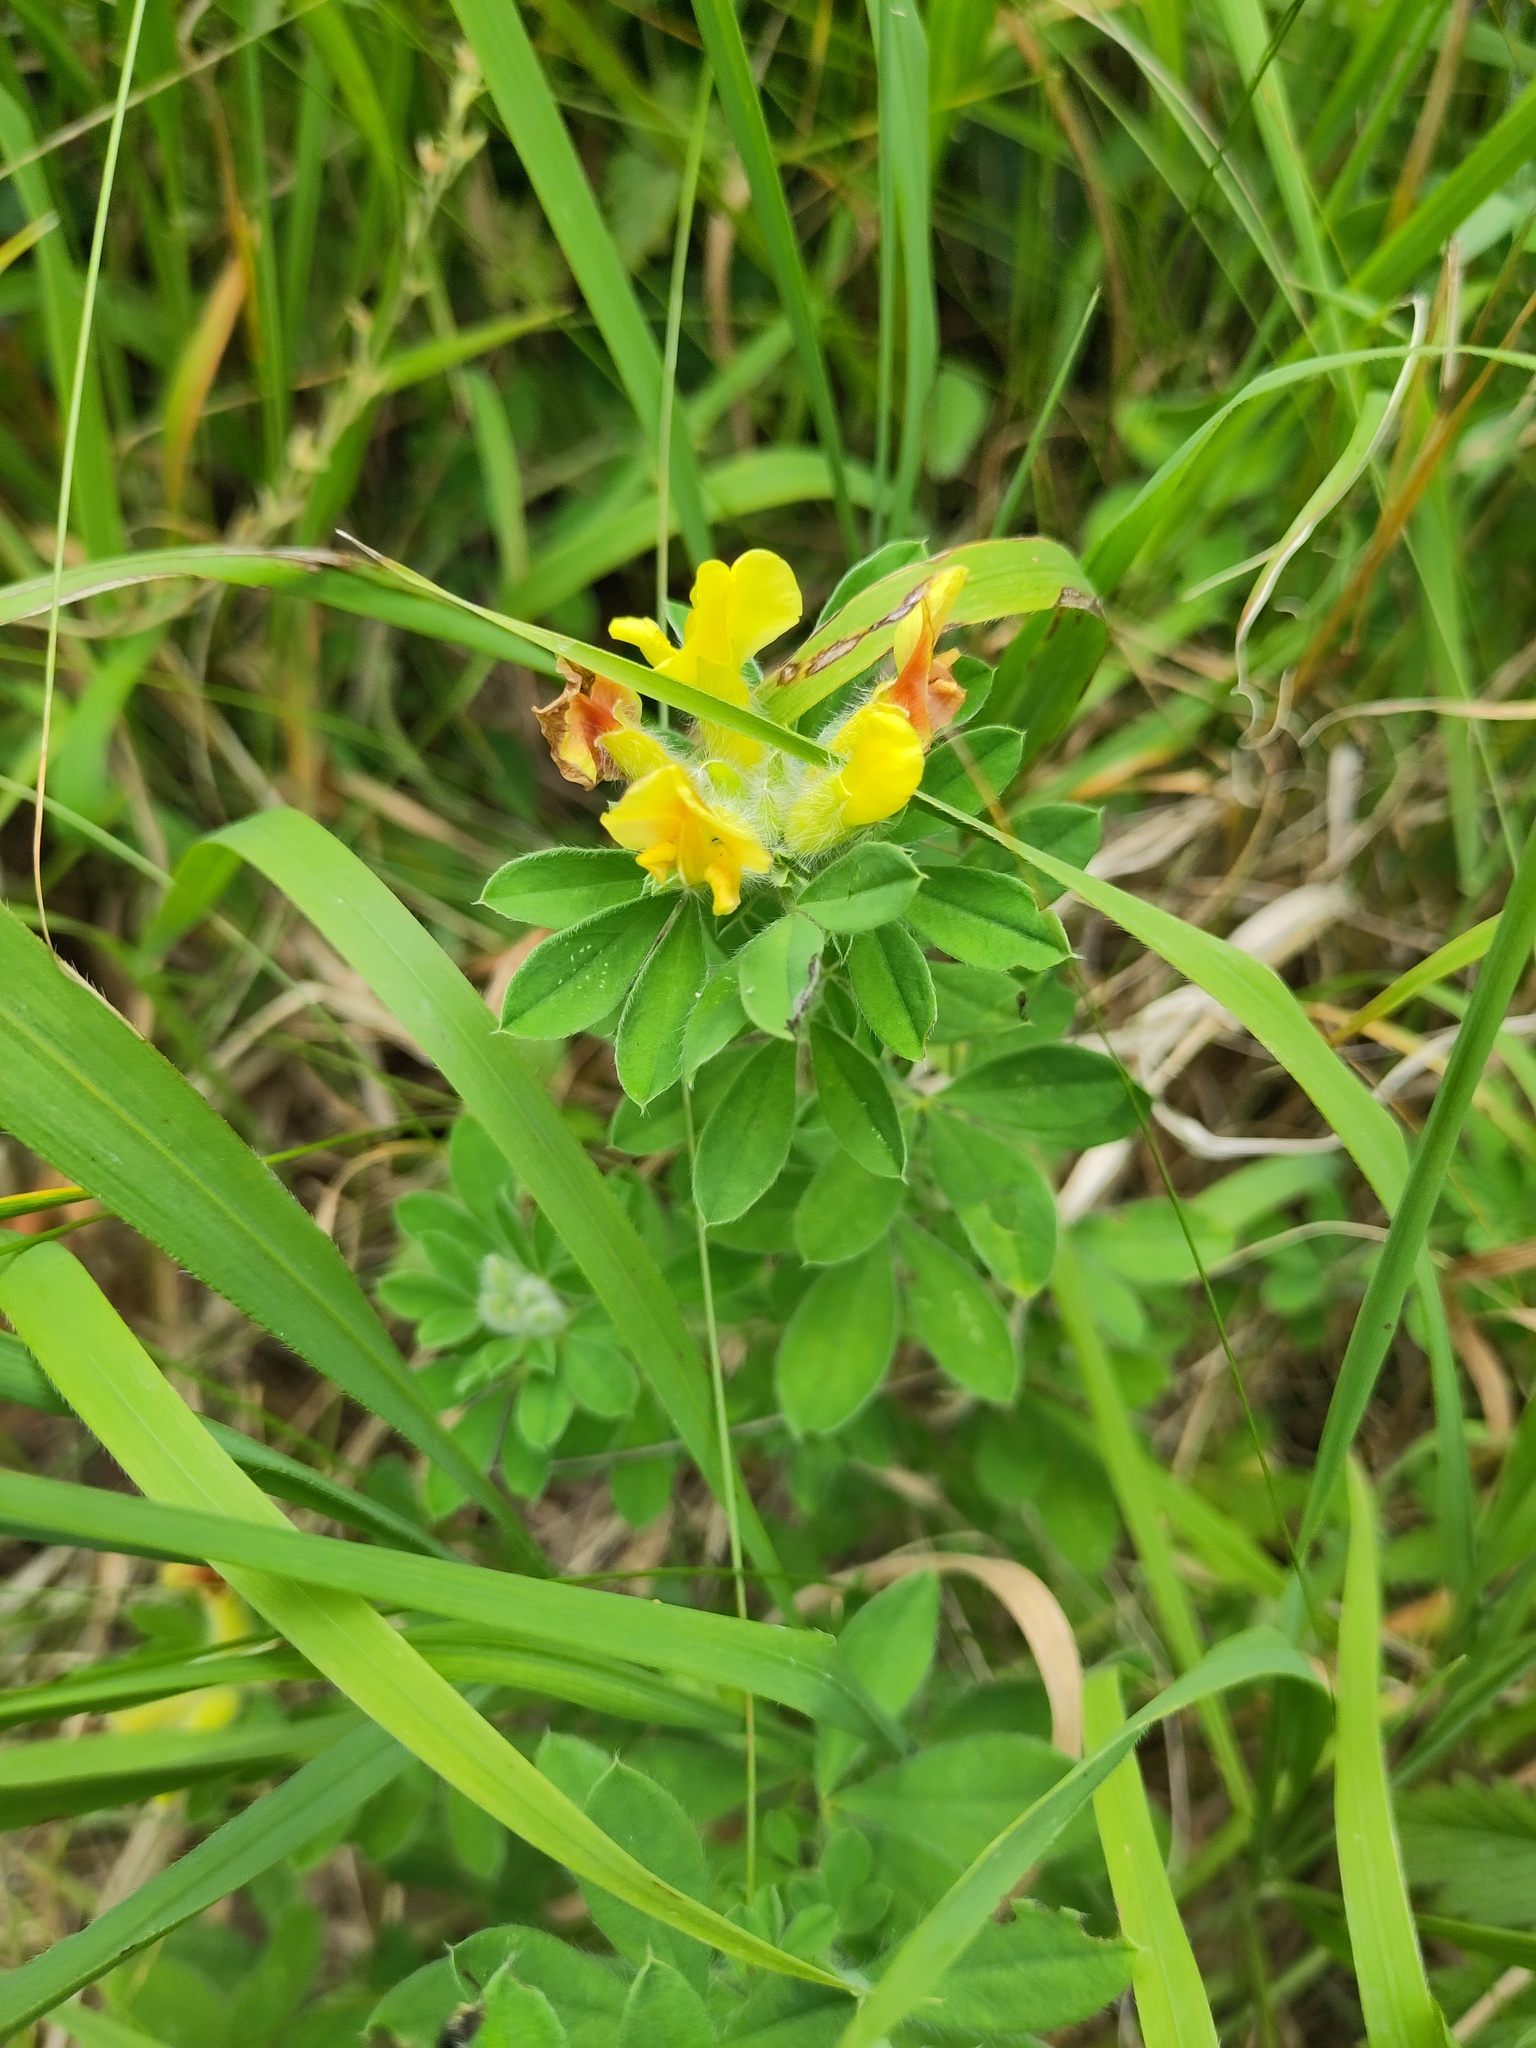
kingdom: Plantae
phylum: Tracheophyta
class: Magnoliopsida
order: Fabales
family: Fabaceae
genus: Chamaecytisus
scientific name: Chamaecytisus supinus
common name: Clustered broom
